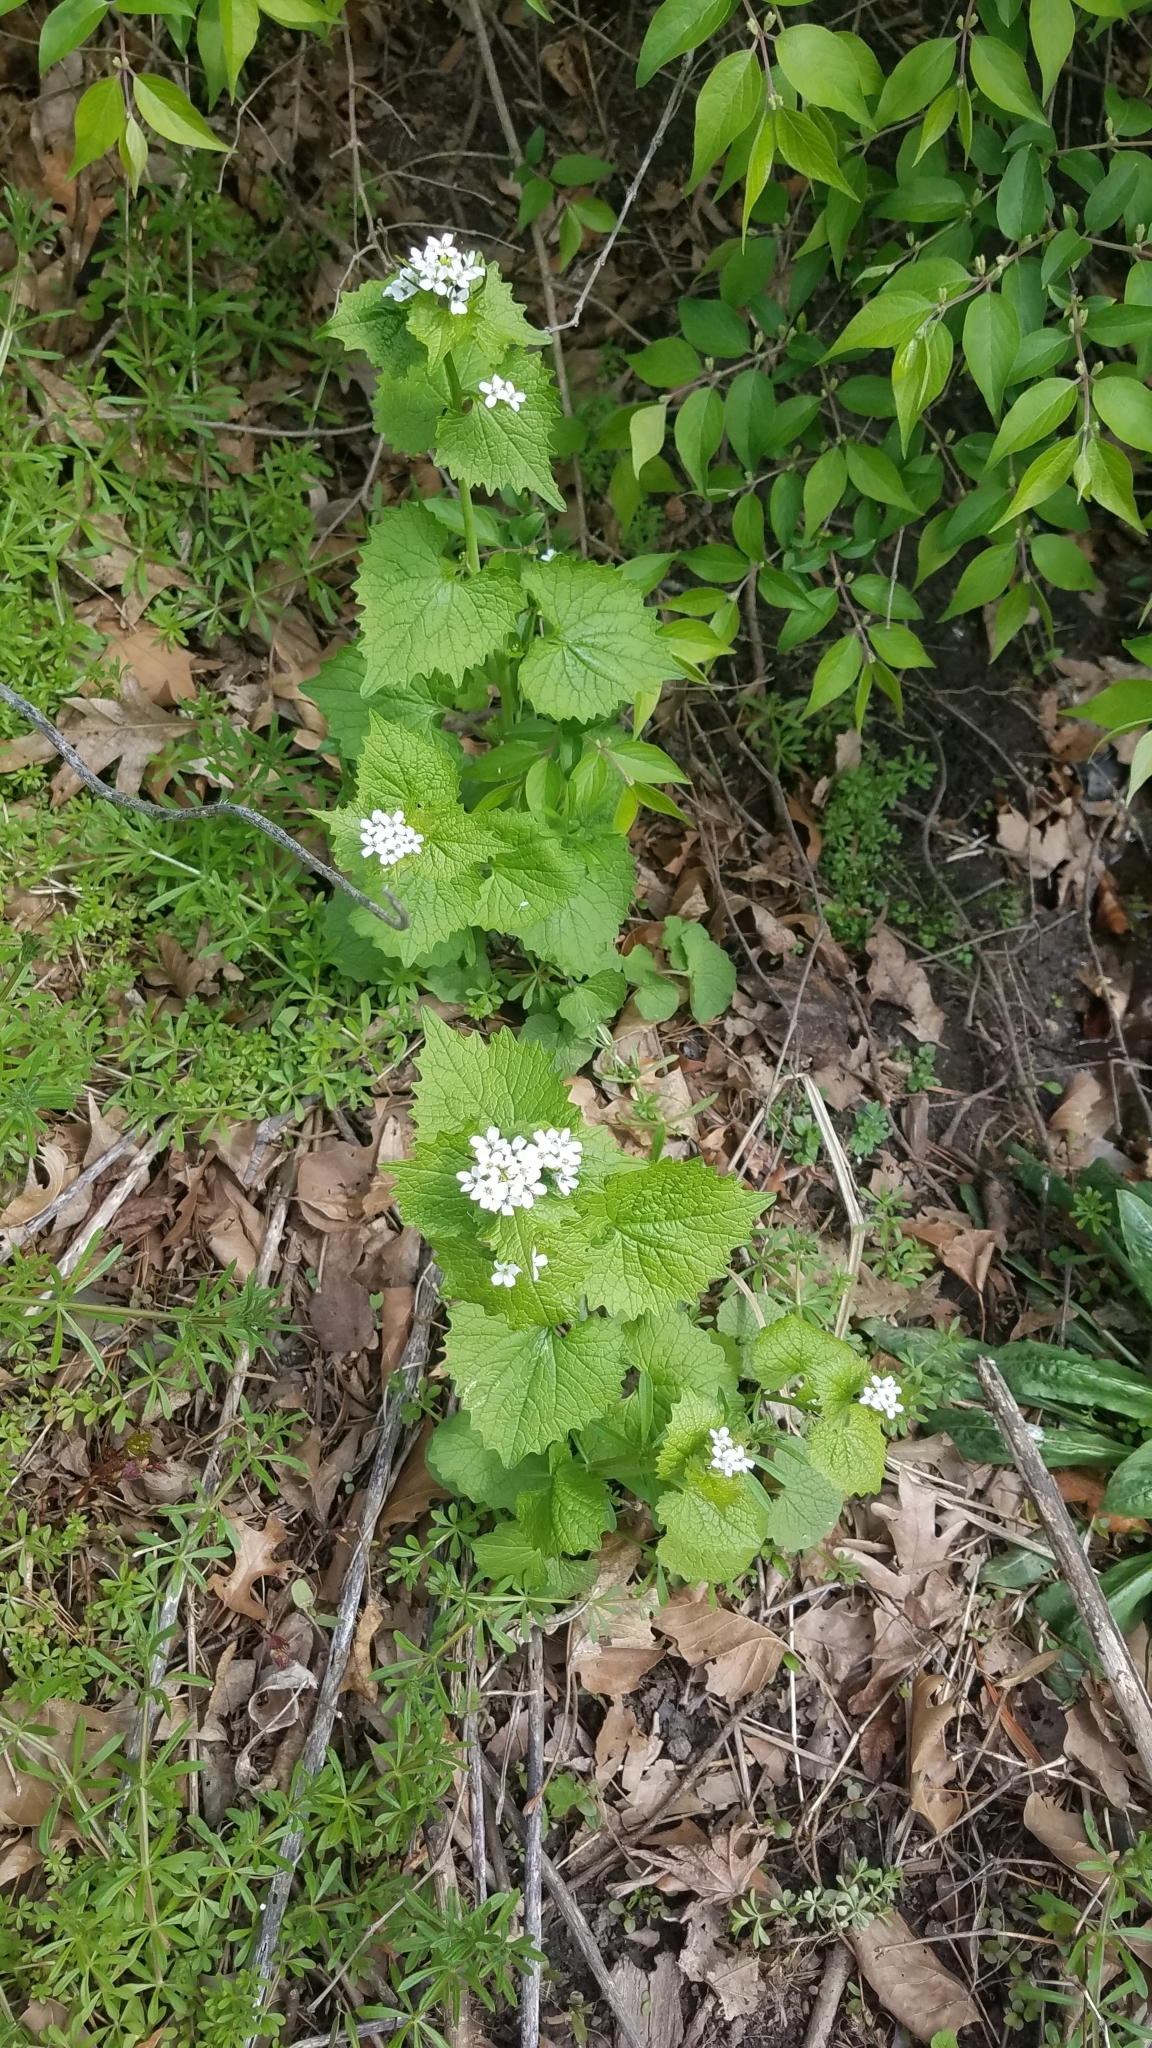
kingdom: Plantae
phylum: Tracheophyta
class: Magnoliopsida
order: Brassicales
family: Brassicaceae
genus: Alliaria
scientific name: Alliaria petiolata
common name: Garlic mustard
